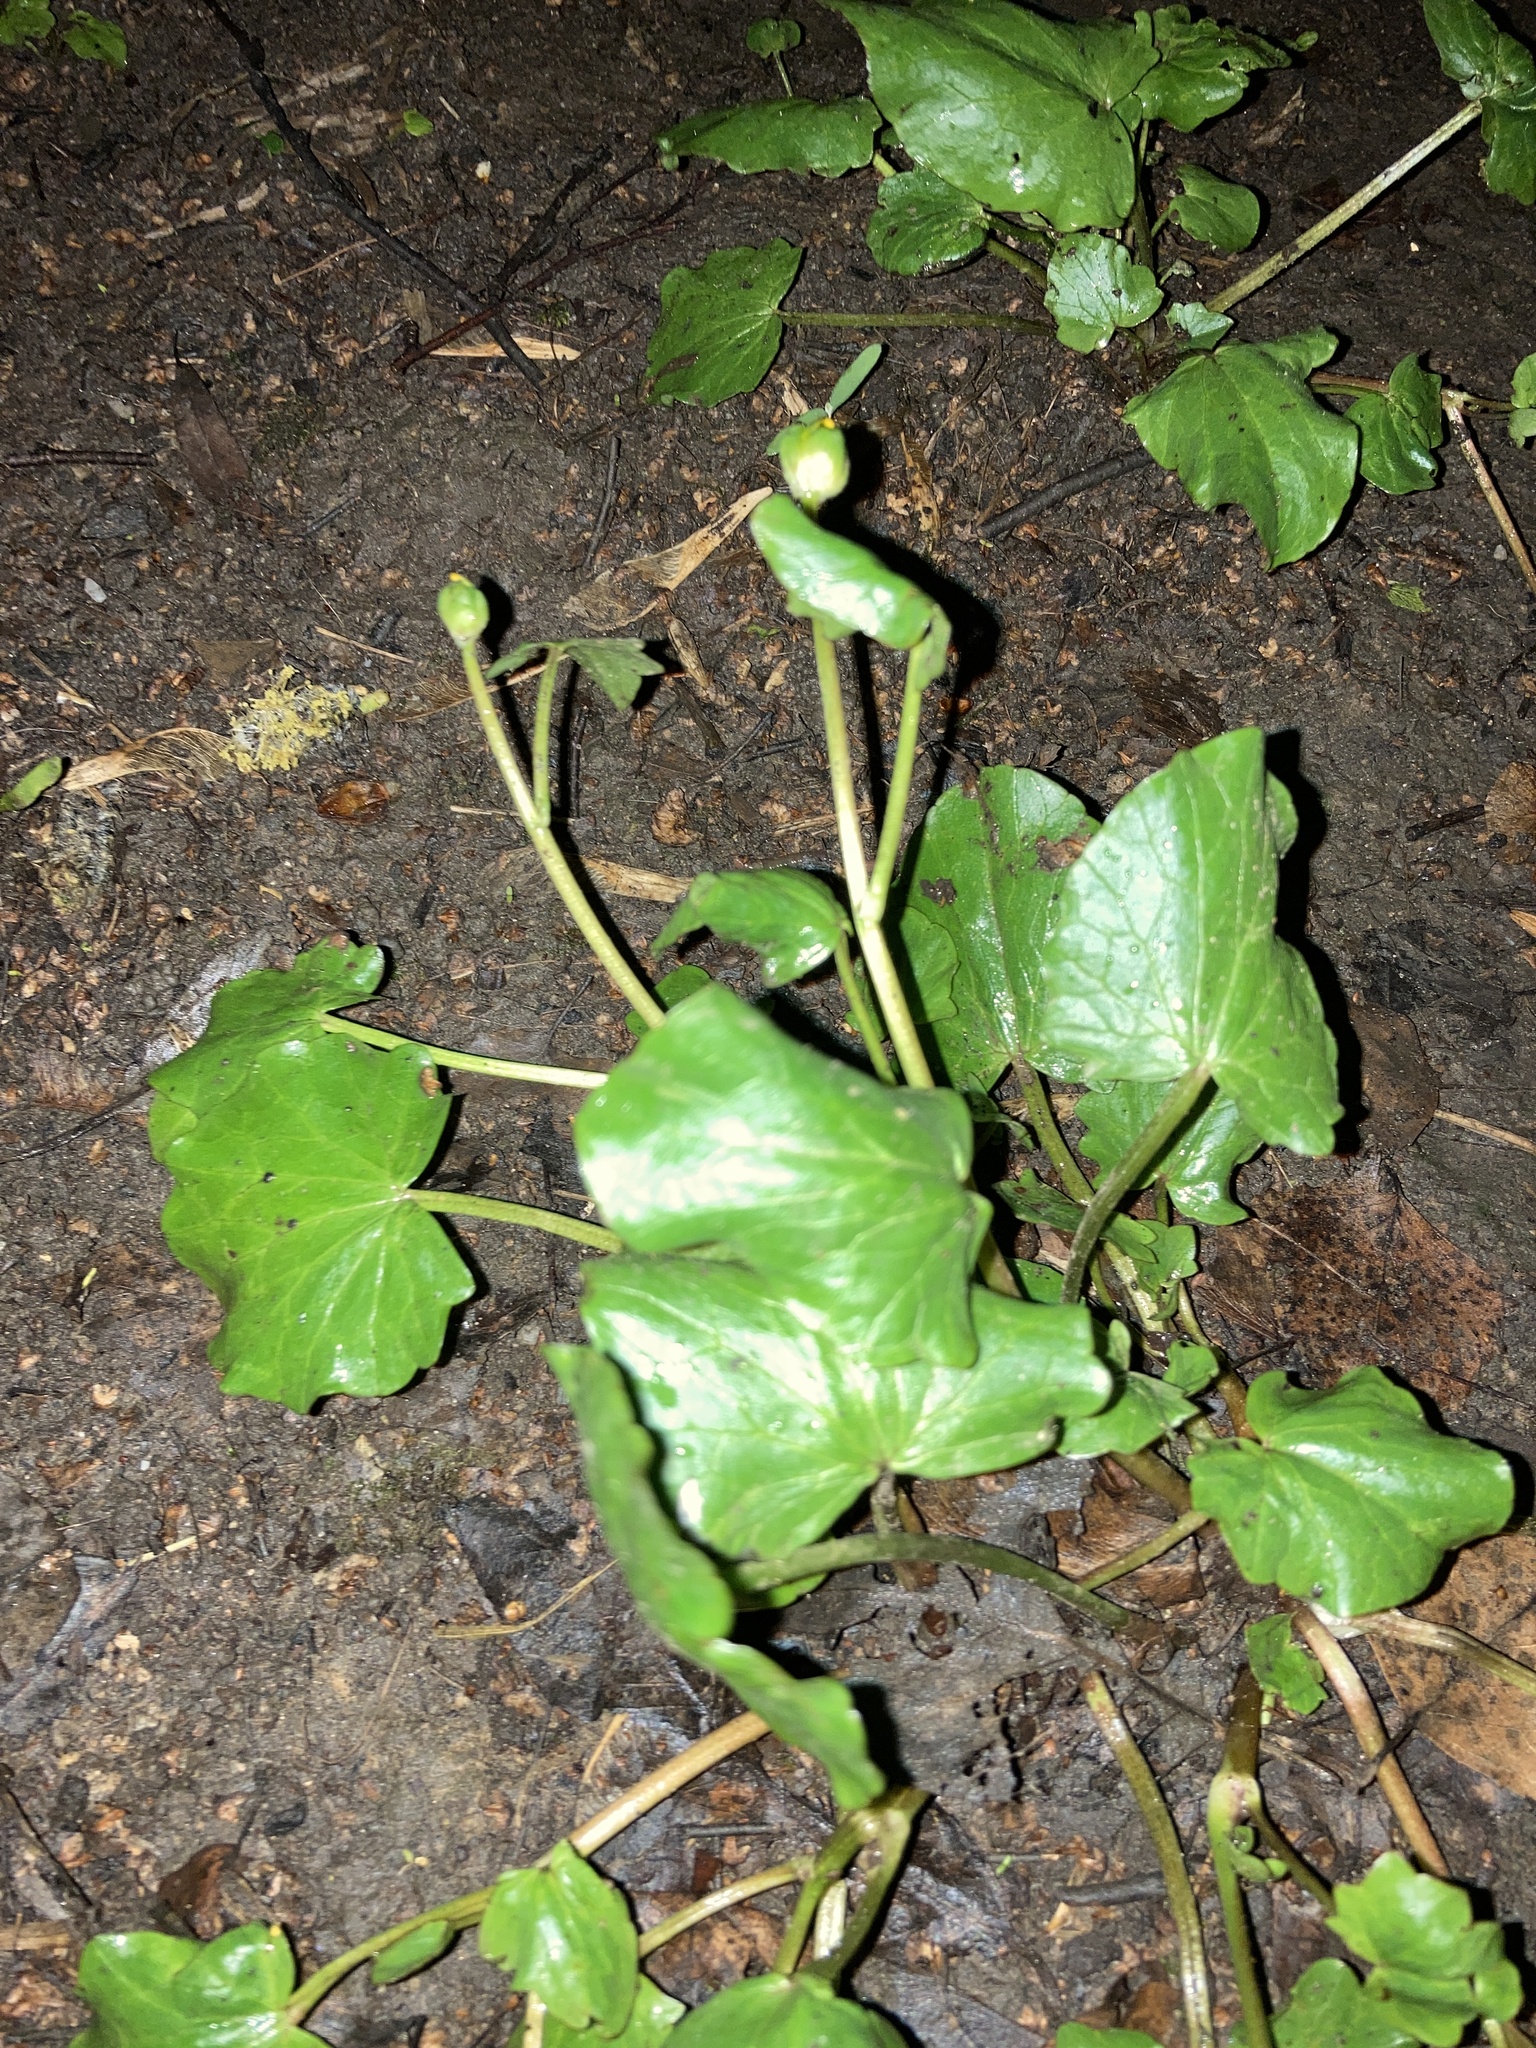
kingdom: Plantae
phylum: Tracheophyta
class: Magnoliopsida
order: Ranunculales
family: Ranunculaceae
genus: Ficaria
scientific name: Ficaria verna
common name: Lesser celandine
